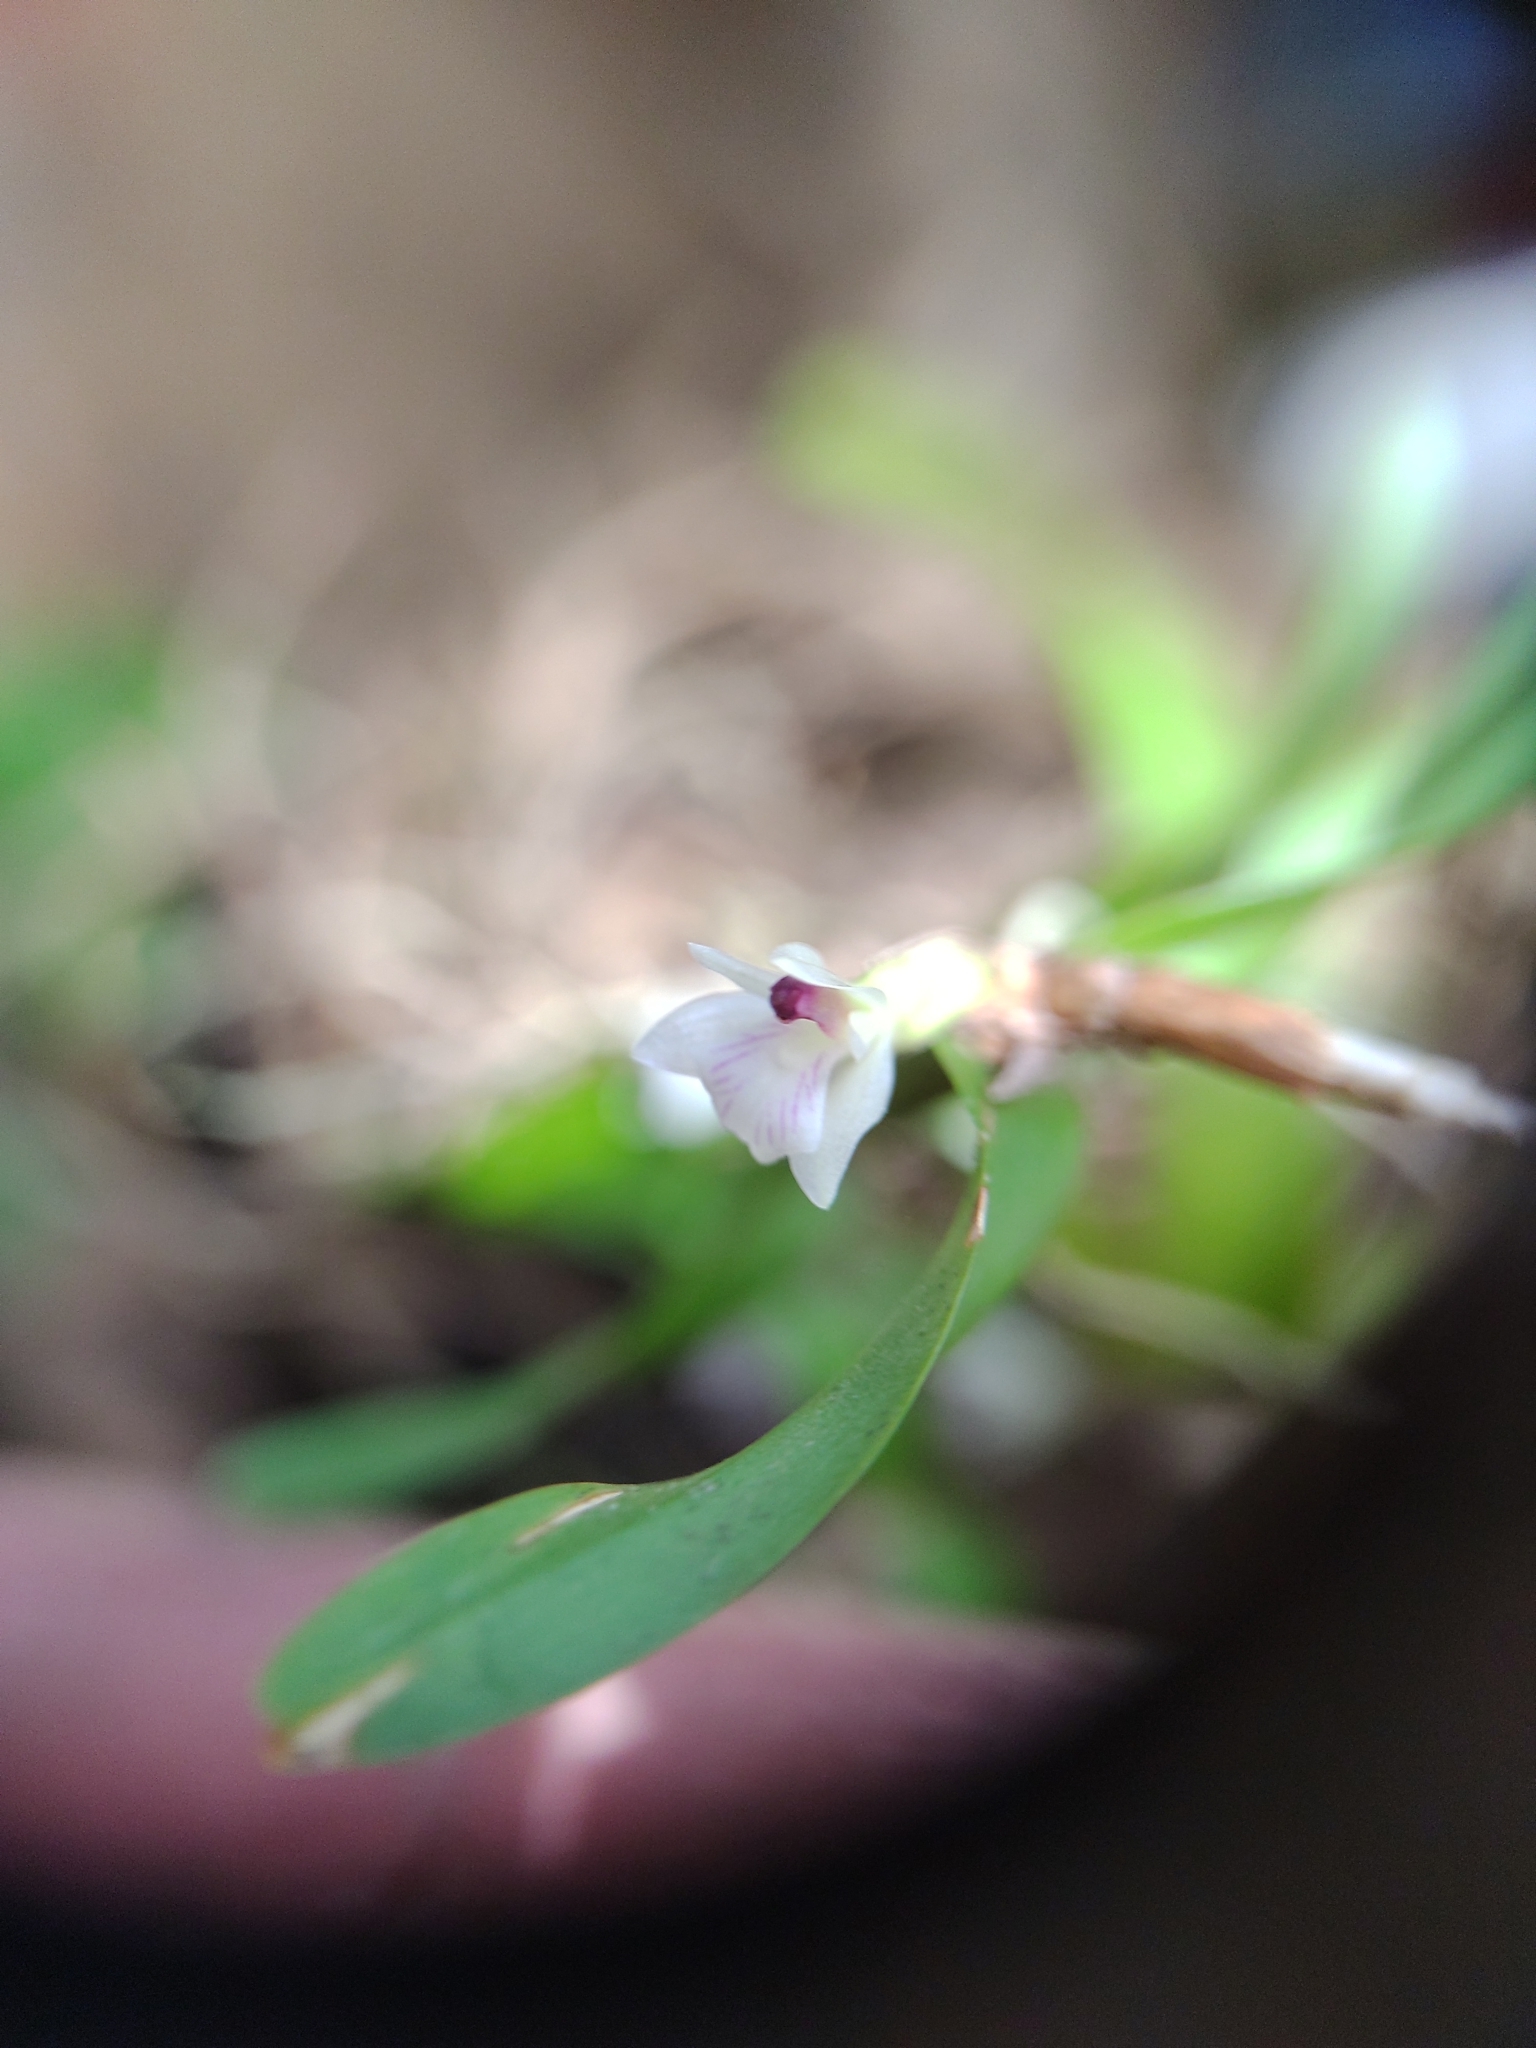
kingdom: Plantae
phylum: Tracheophyta
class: Liliopsida
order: Asparagales
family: Orchidaceae
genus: Scaphyglottis
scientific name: Scaphyglottis leucantha
